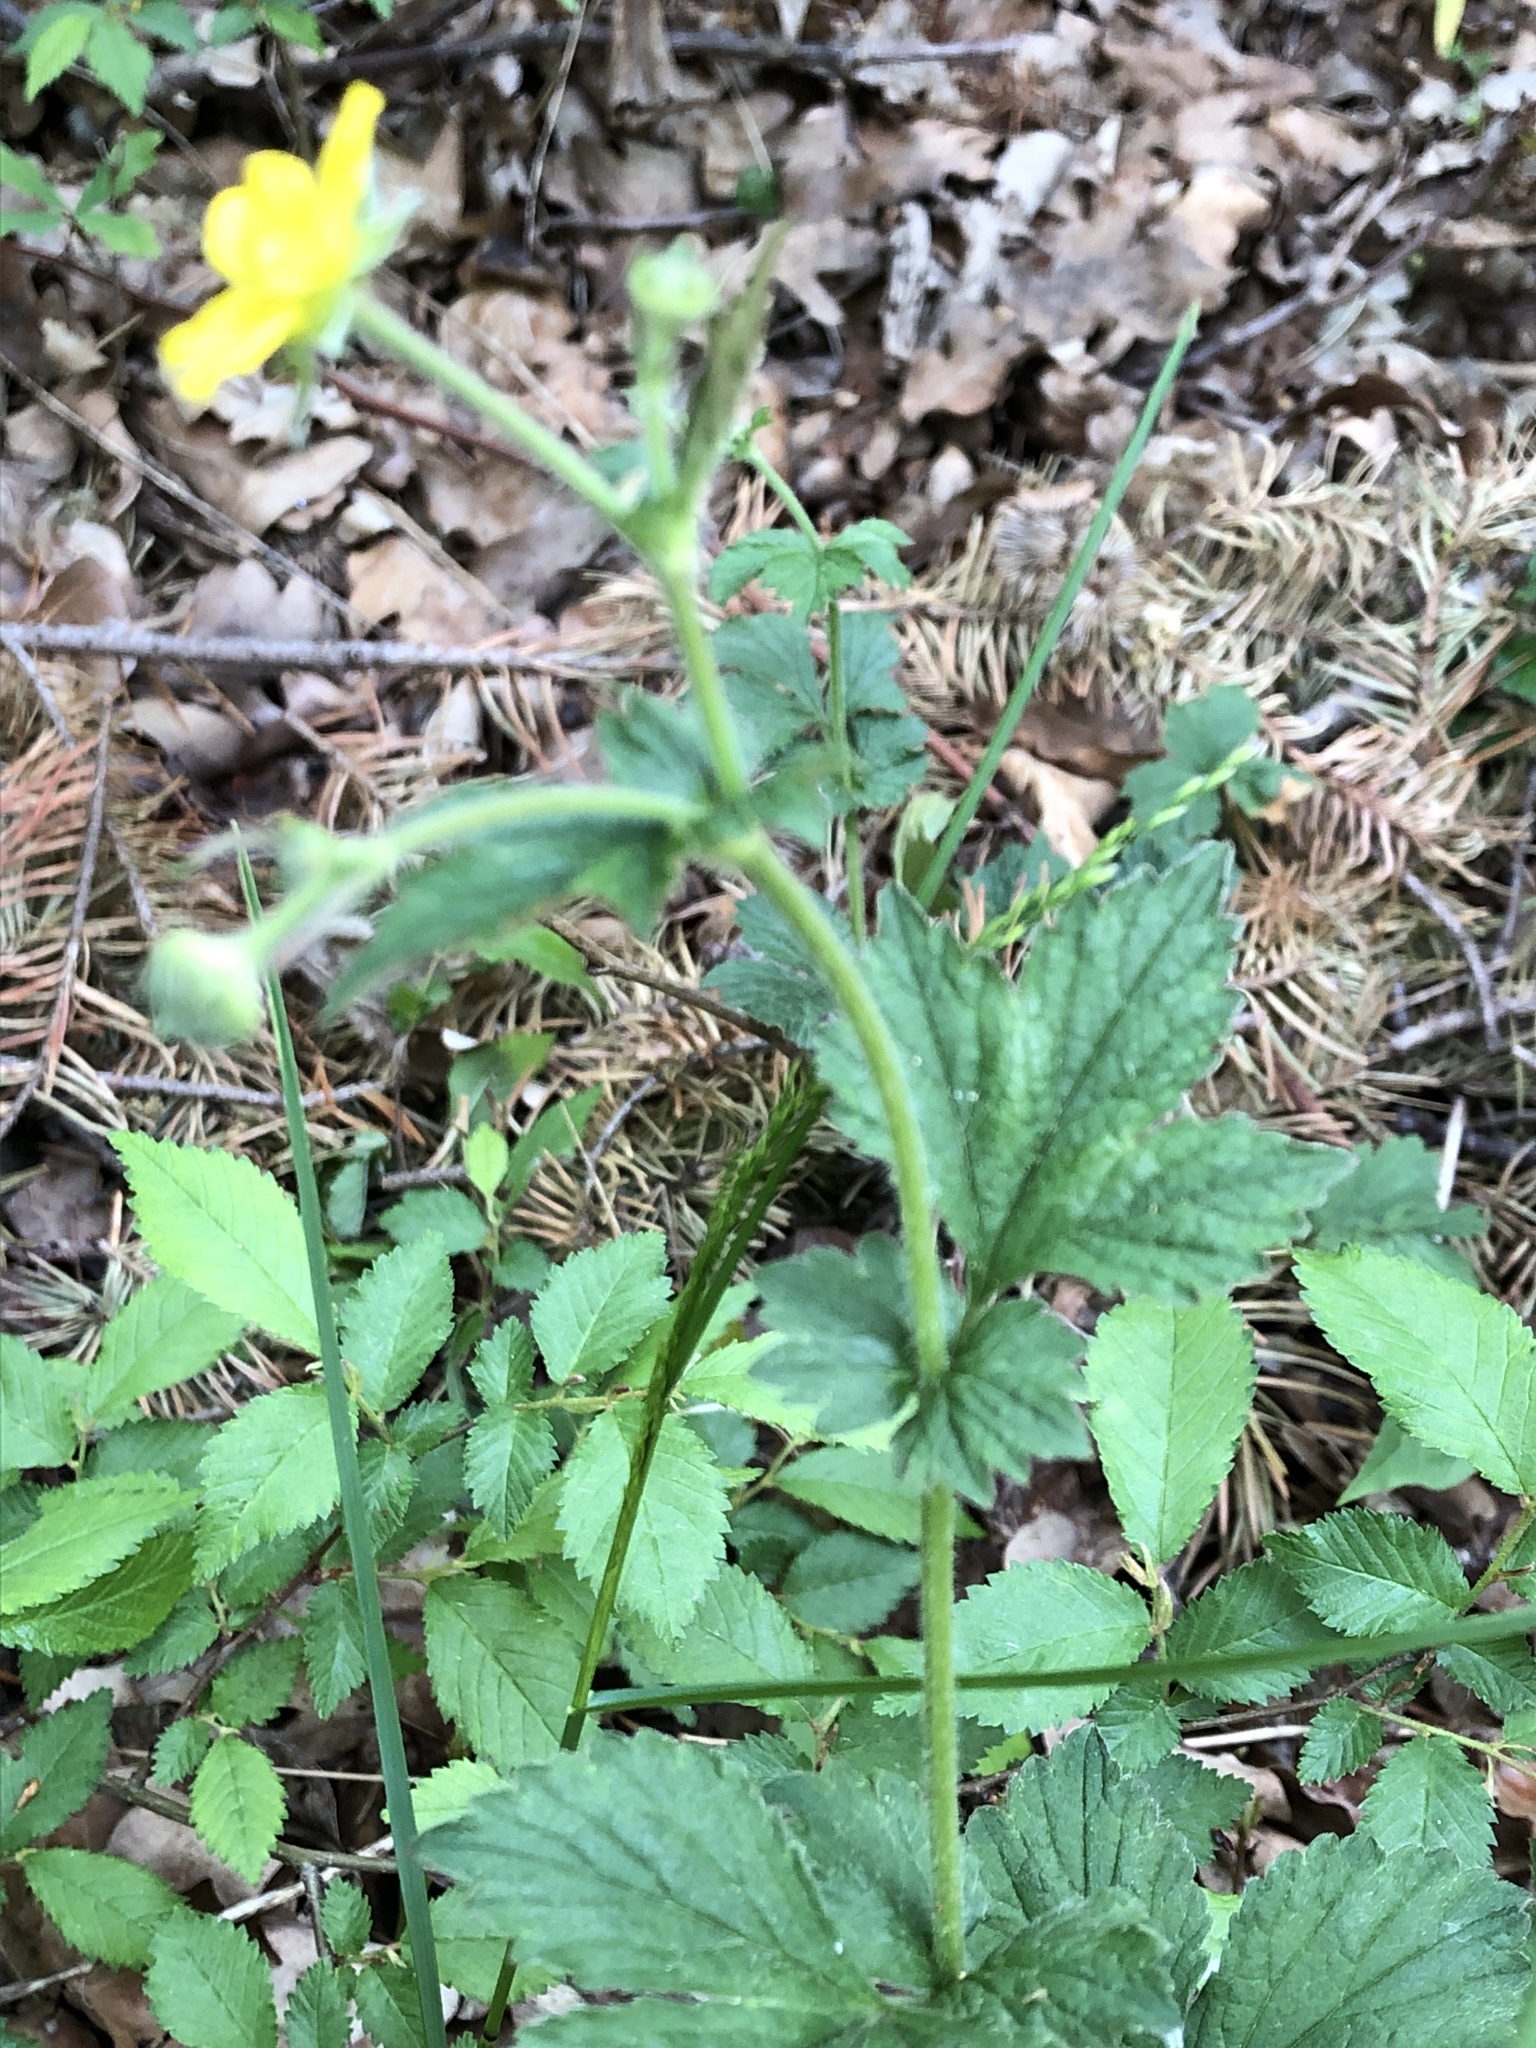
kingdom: Plantae
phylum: Tracheophyta
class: Magnoliopsida
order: Rosales
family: Rosaceae
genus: Geum
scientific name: Geum urbanum
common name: Wood avens
